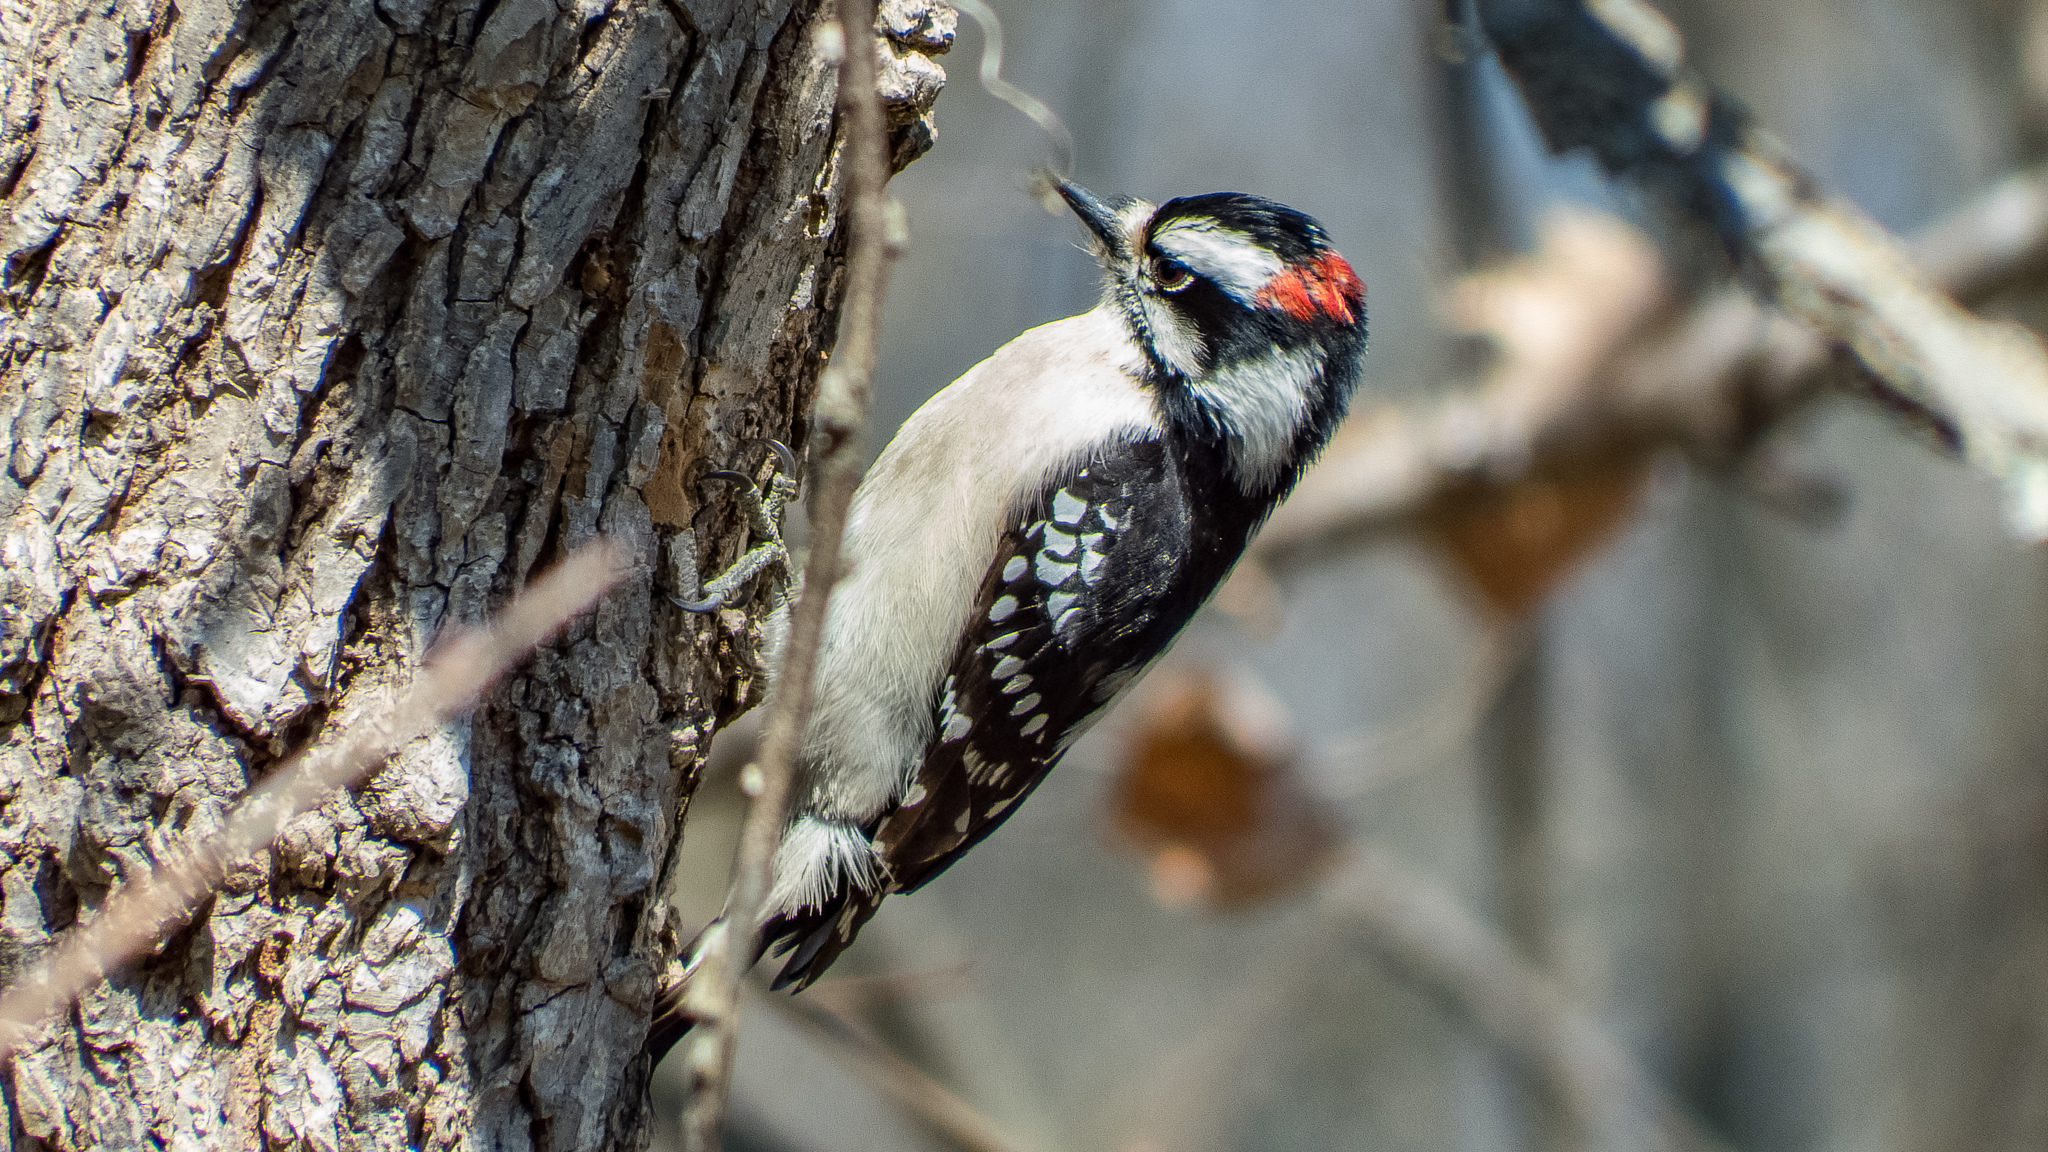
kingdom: Animalia
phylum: Chordata
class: Aves
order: Piciformes
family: Picidae
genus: Dryobates
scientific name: Dryobates pubescens
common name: Downy woodpecker
